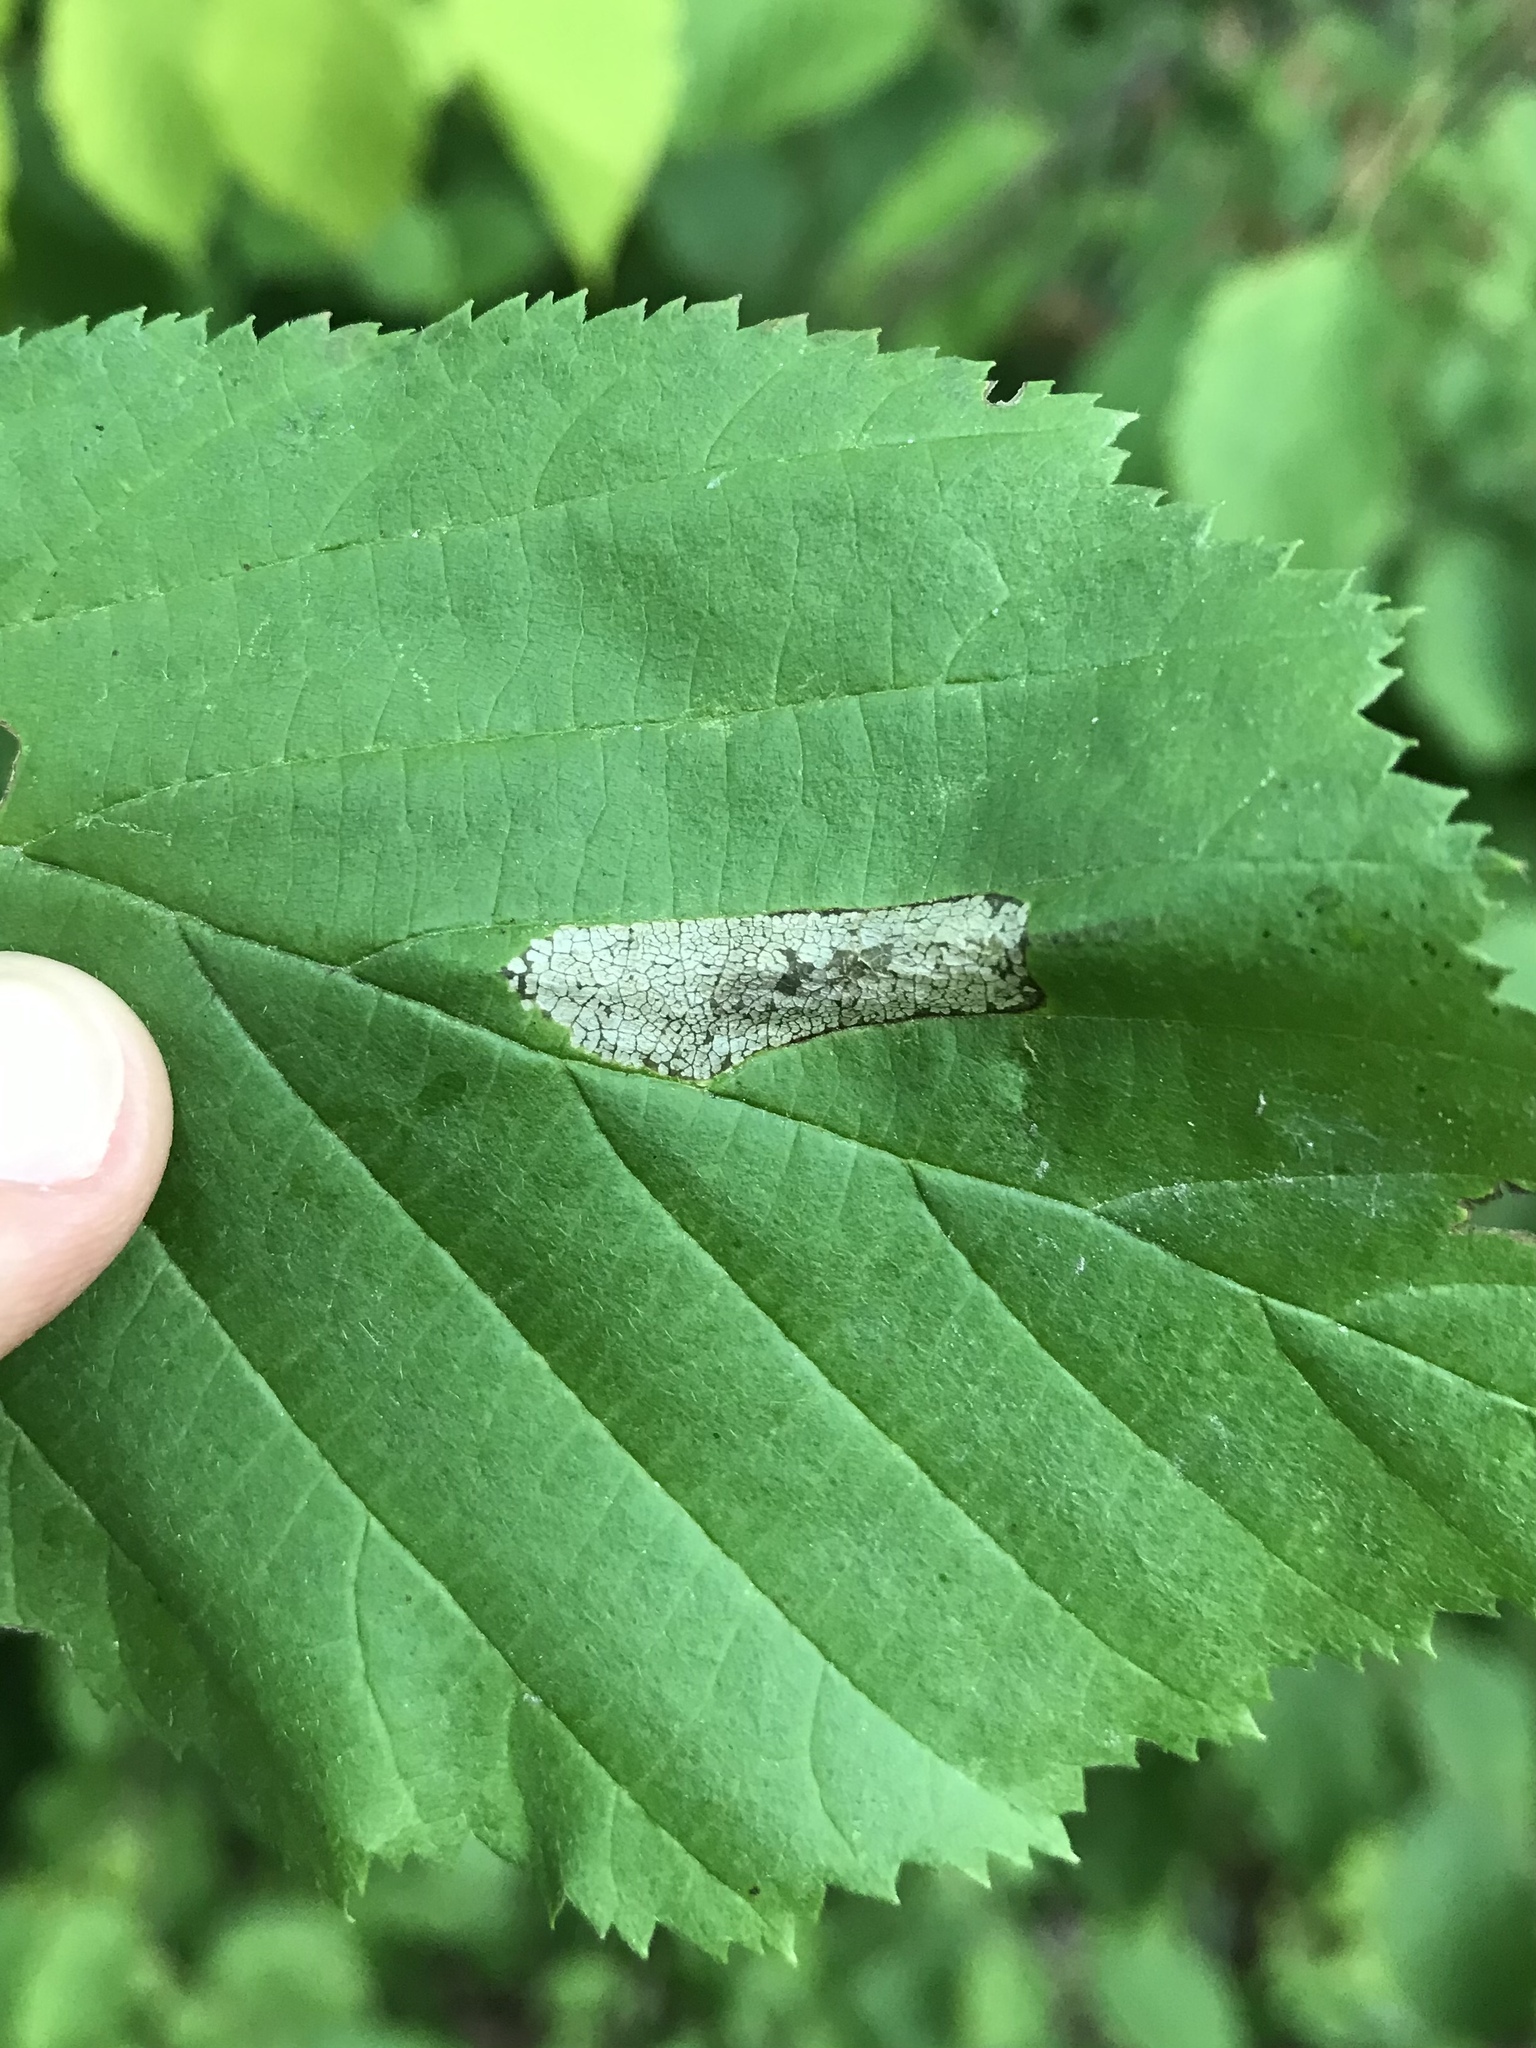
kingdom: Animalia
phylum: Arthropoda
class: Insecta
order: Lepidoptera
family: Gracillariidae
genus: Phyllonorycter
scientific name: Phyllonorycter intermixta
